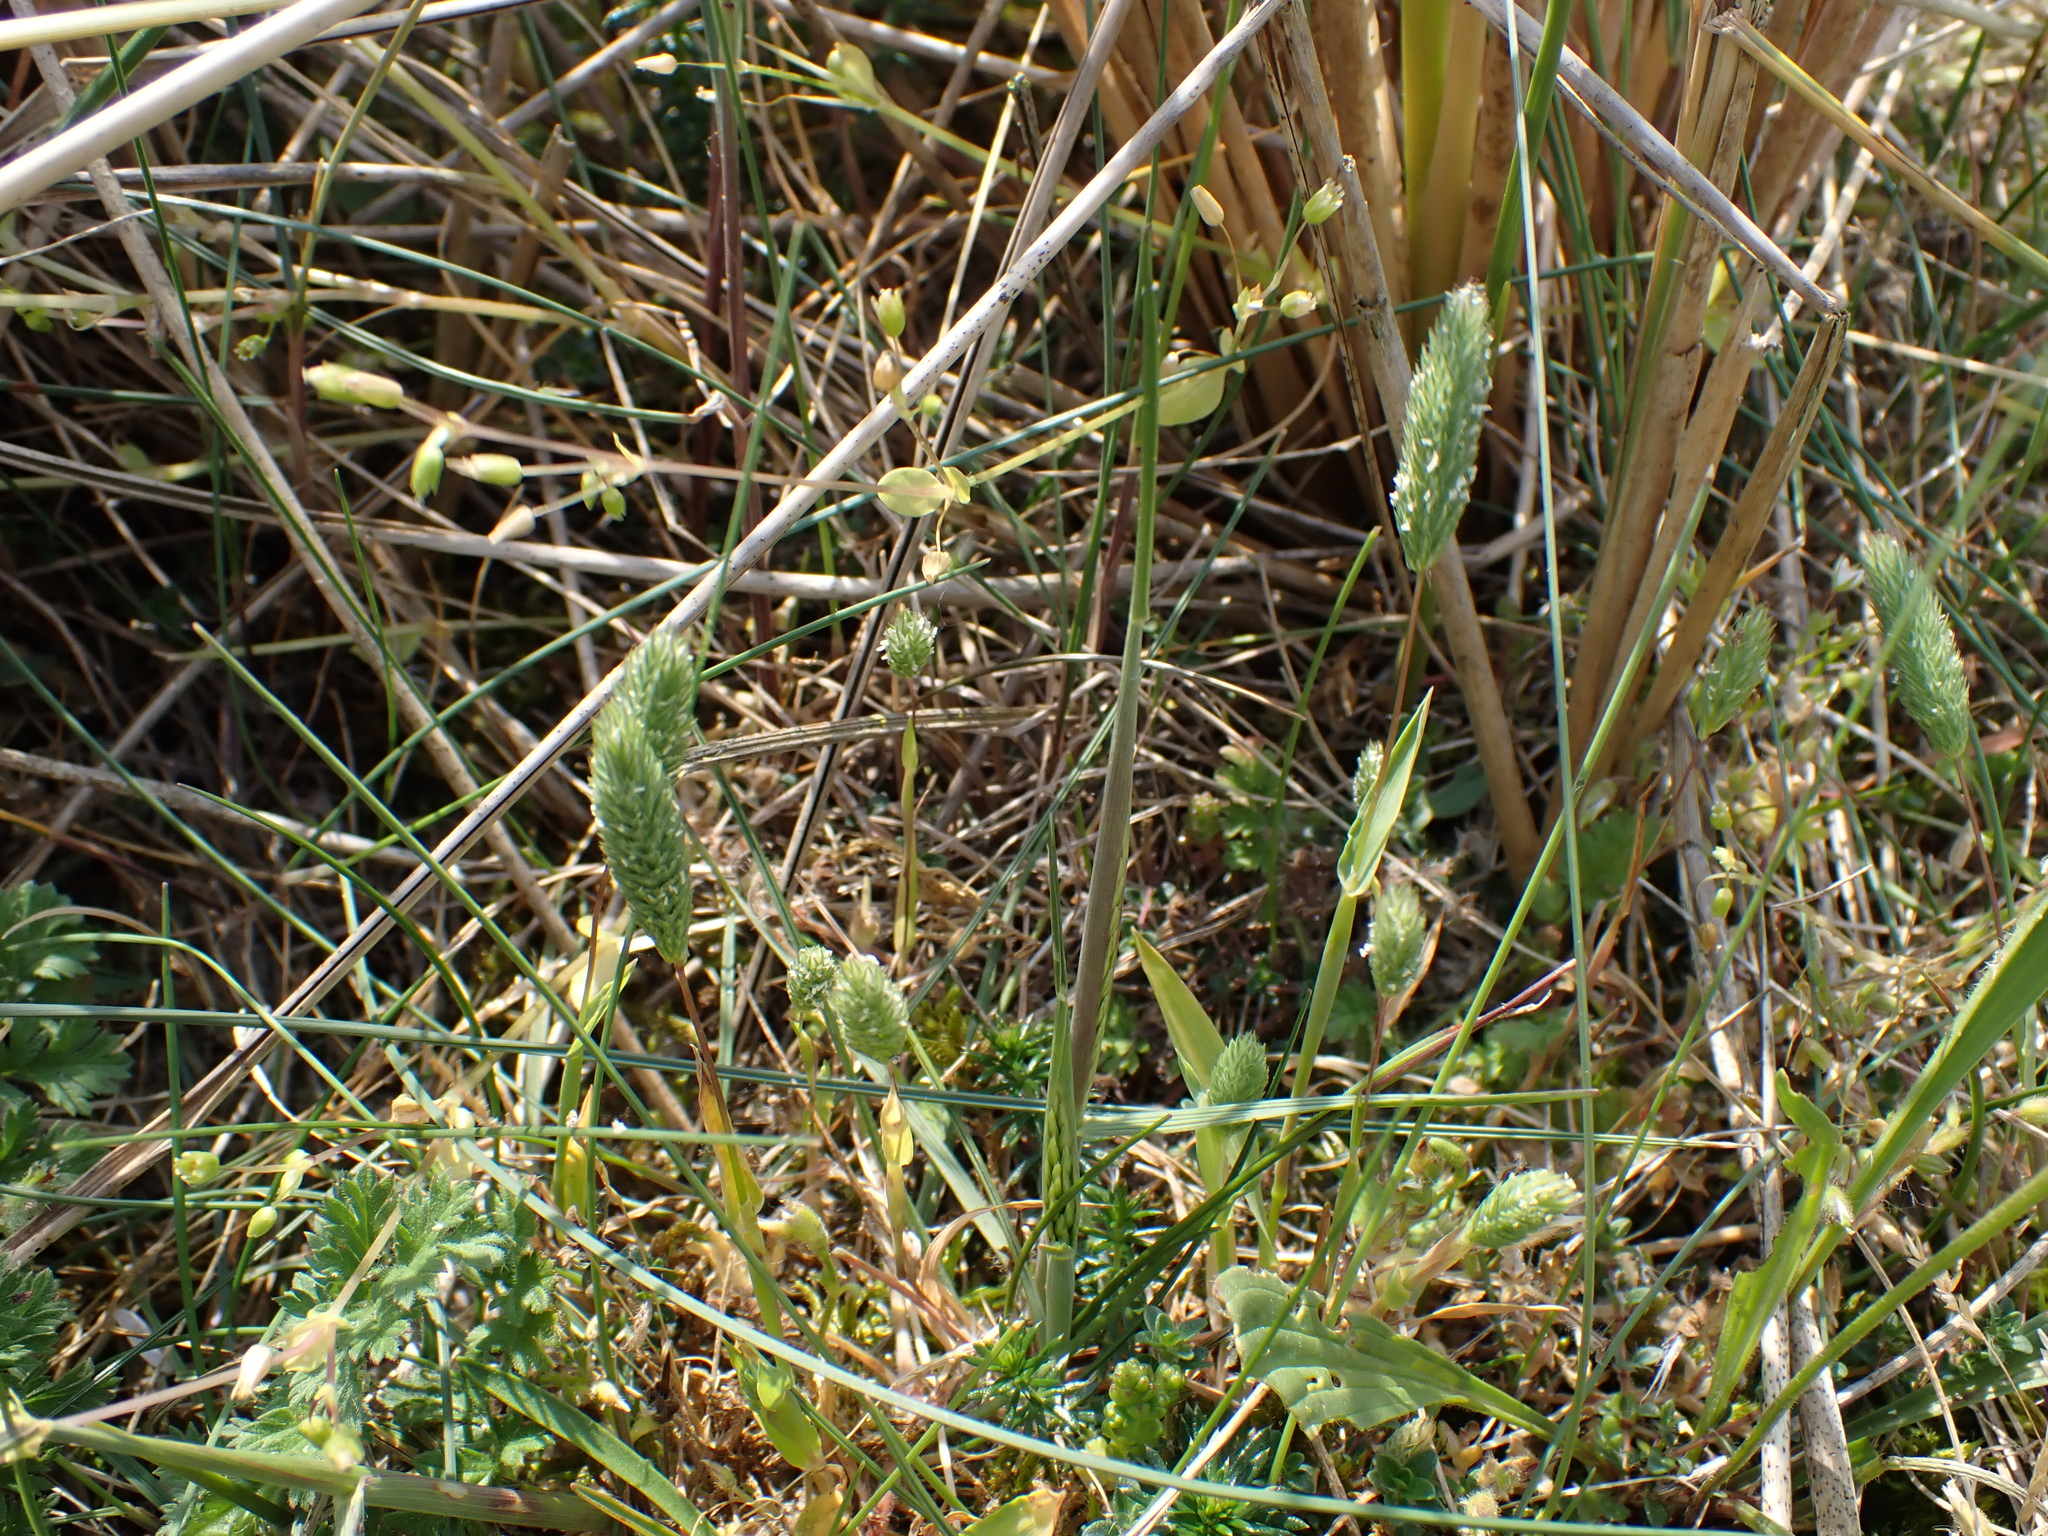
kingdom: Plantae
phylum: Tracheophyta
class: Liliopsida
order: Poales
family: Poaceae
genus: Phleum
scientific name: Phleum arenarium
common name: Sand cat's-tail
